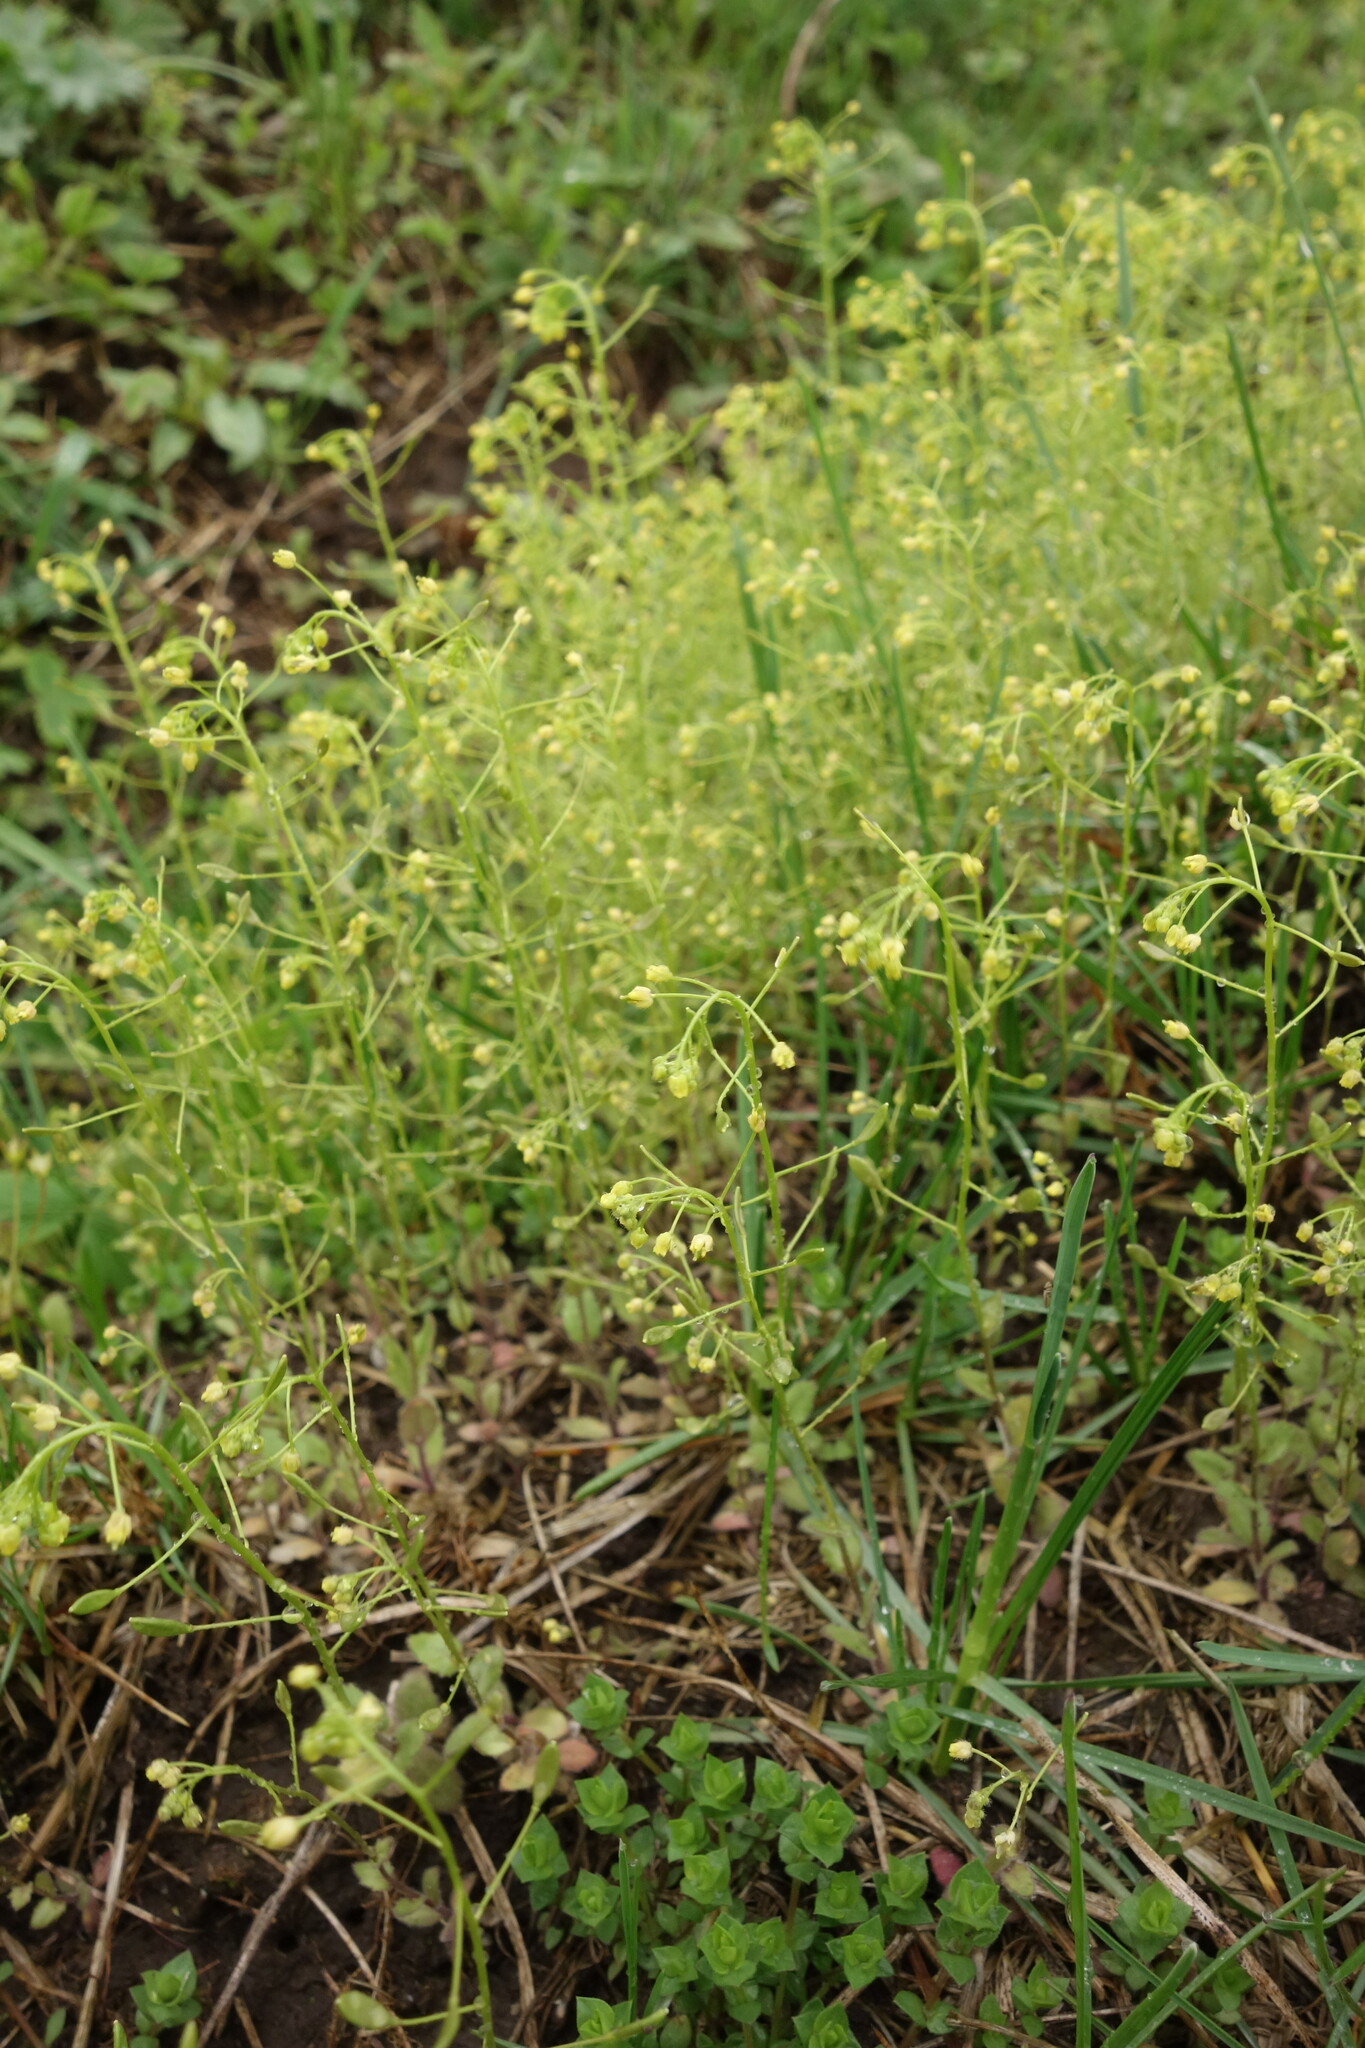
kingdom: Plantae
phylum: Tracheophyta
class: Magnoliopsida
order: Brassicales
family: Brassicaceae
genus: Draba
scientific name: Draba nemorosa
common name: Wood whitlow-grass
